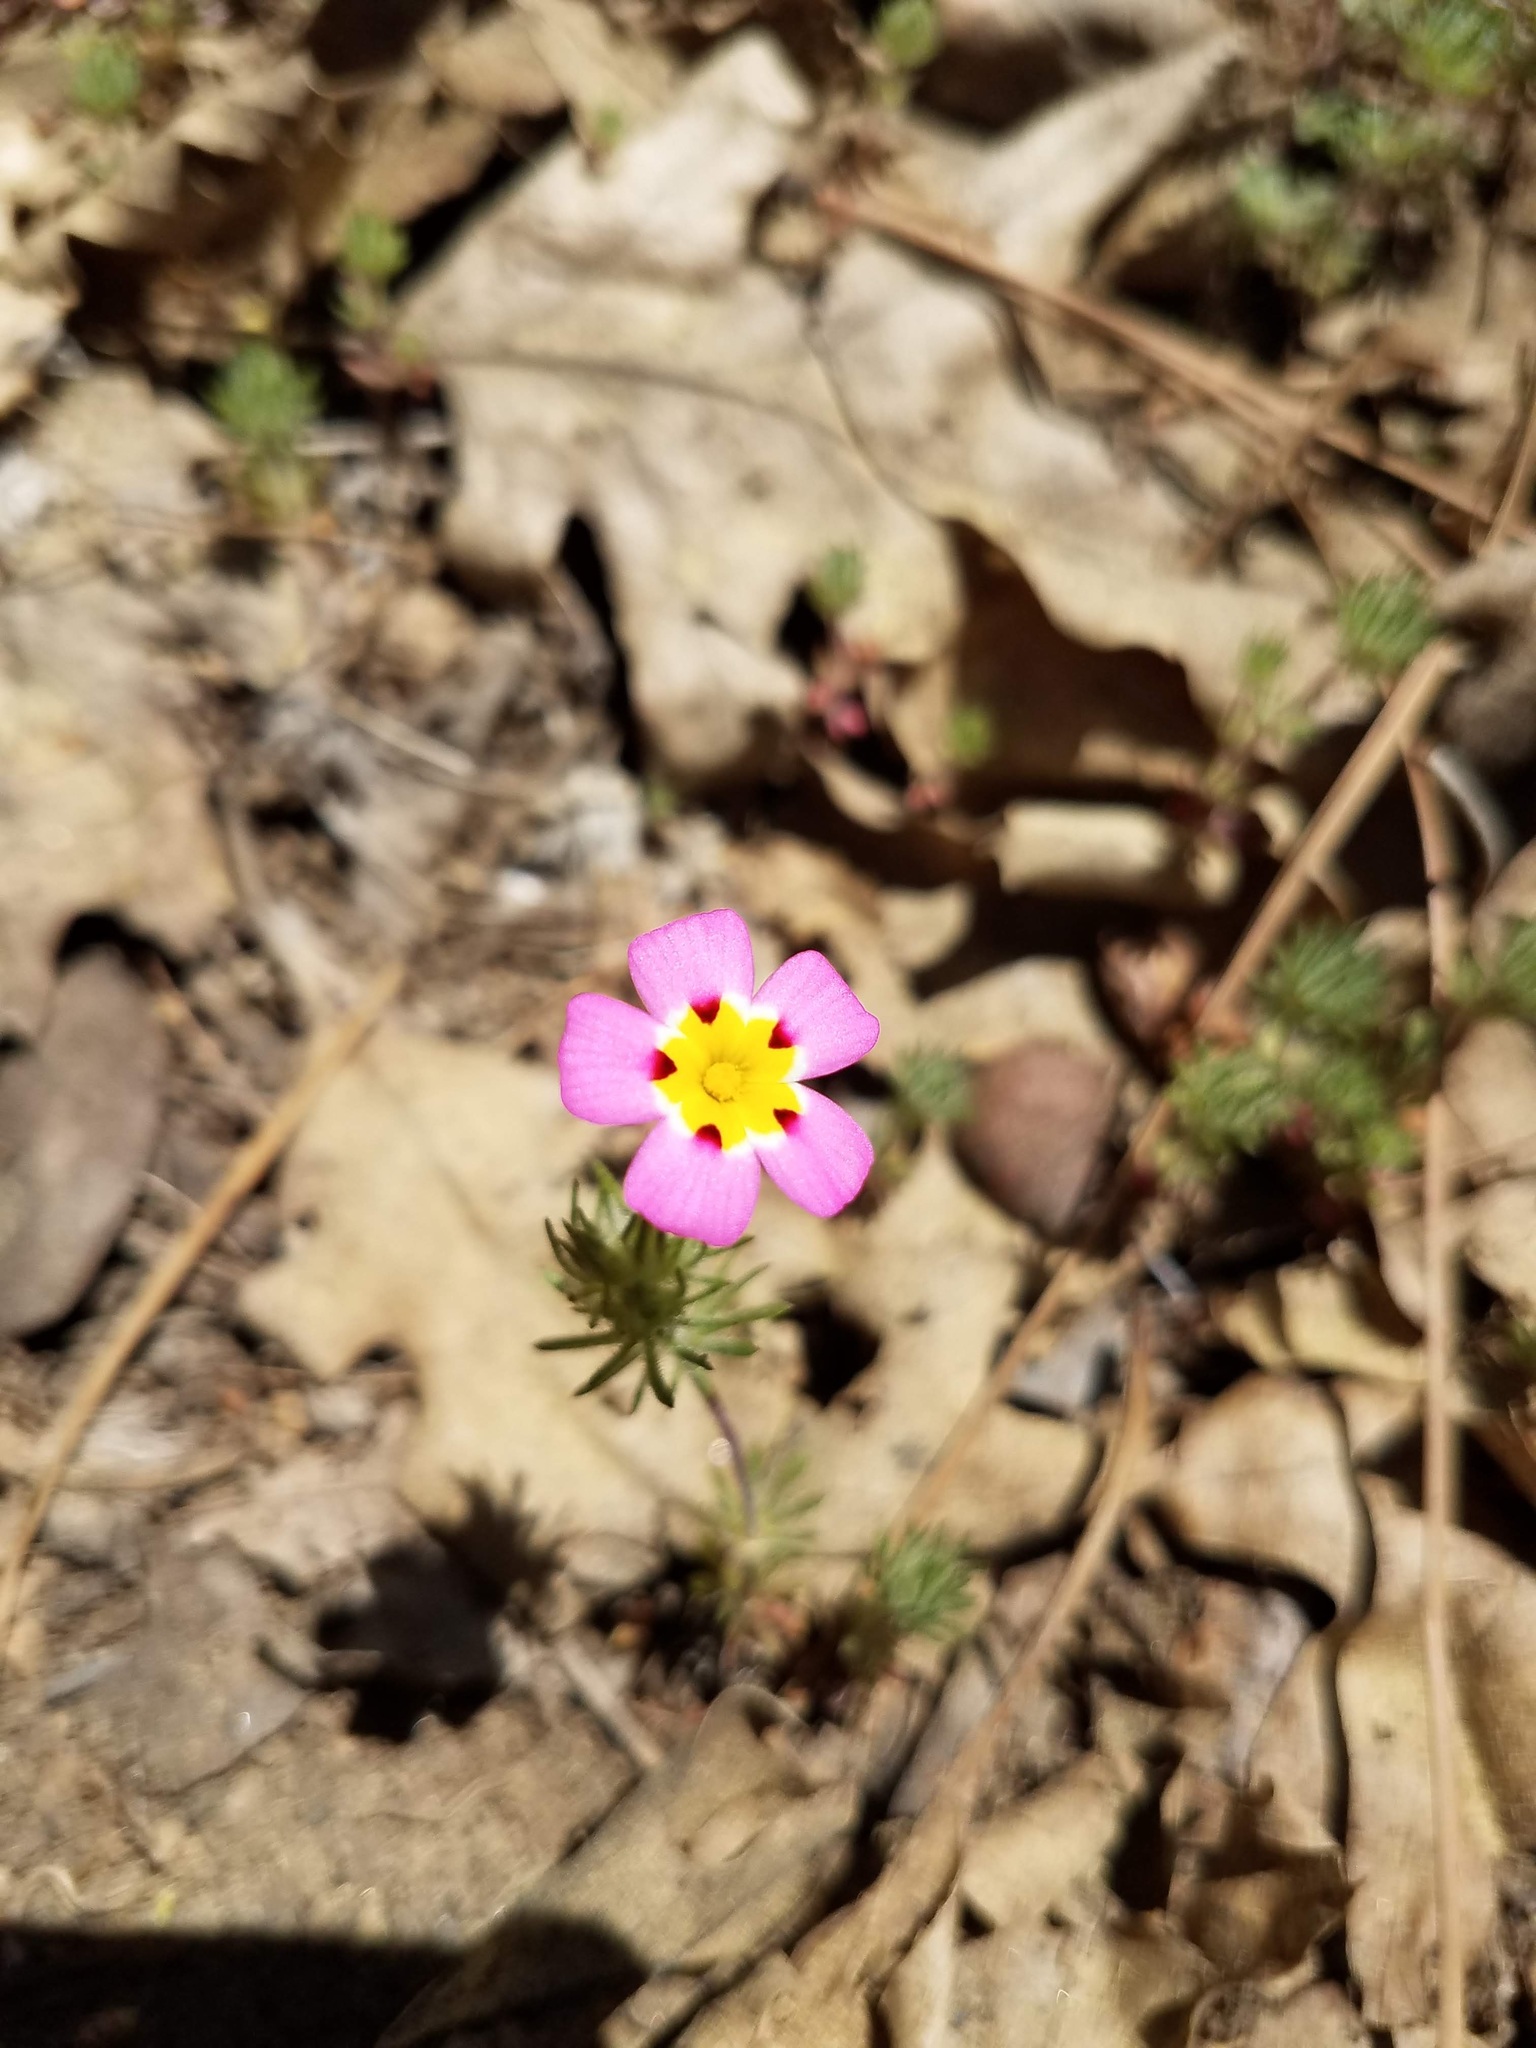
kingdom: Plantae
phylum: Tracheophyta
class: Magnoliopsida
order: Ericales
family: Polemoniaceae
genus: Leptosiphon
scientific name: Leptosiphon ciliatus
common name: Whiskerbrush
